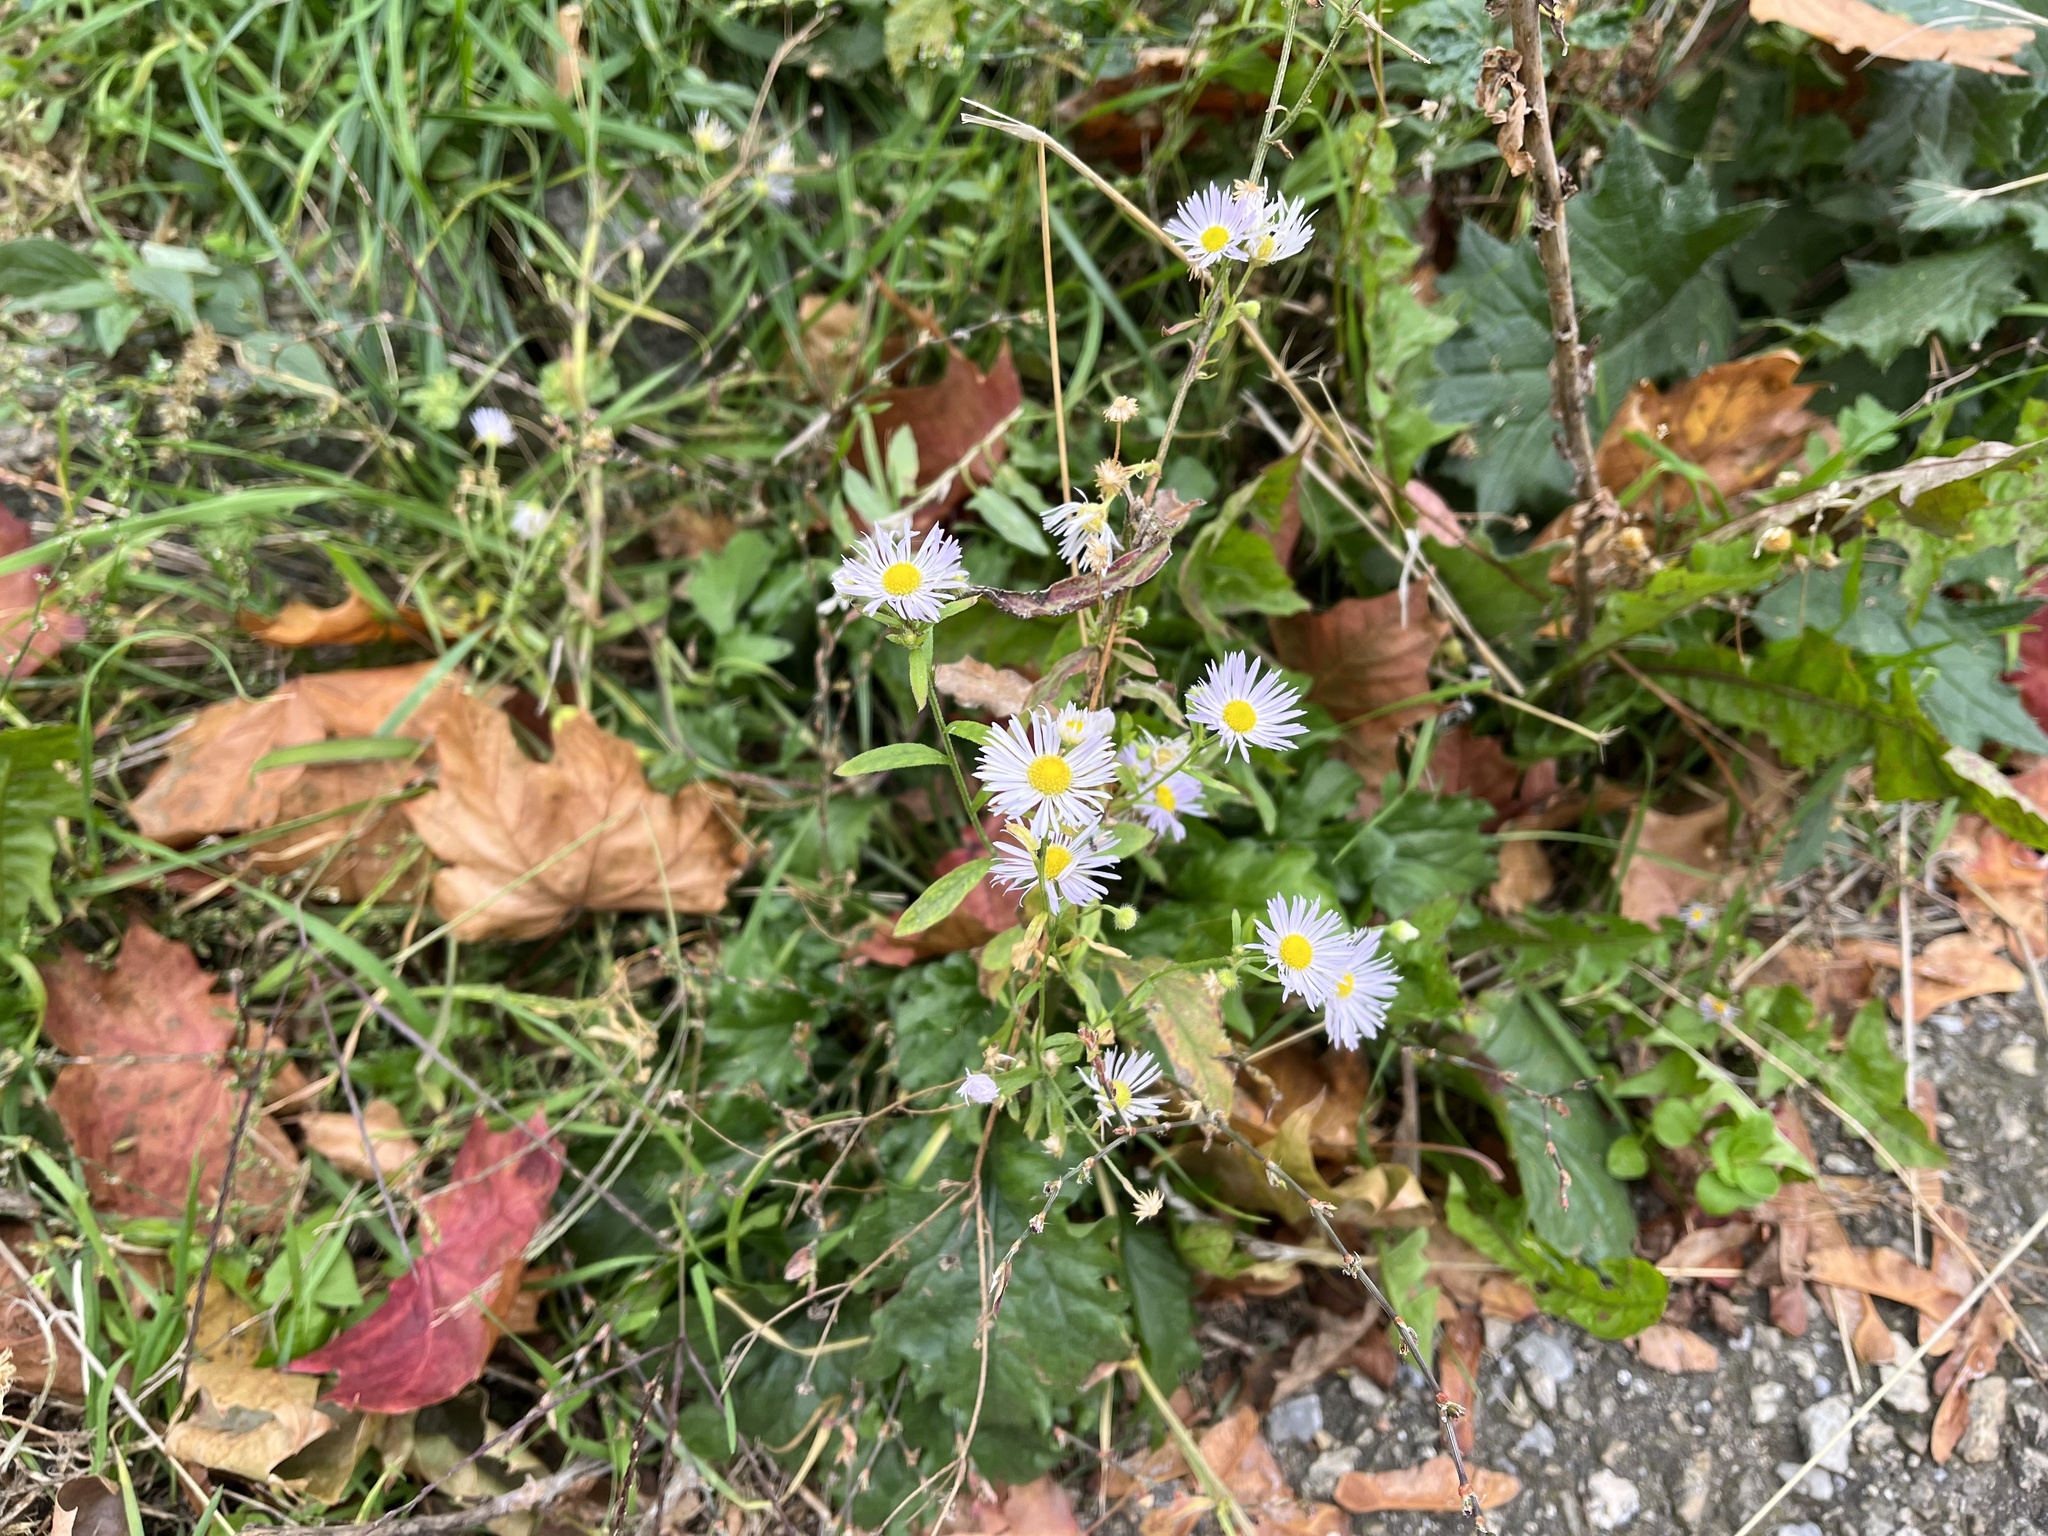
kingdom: Plantae
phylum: Tracheophyta
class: Magnoliopsida
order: Asterales
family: Asteraceae
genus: Erigeron
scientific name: Erigeron annuus
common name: Tall fleabane
